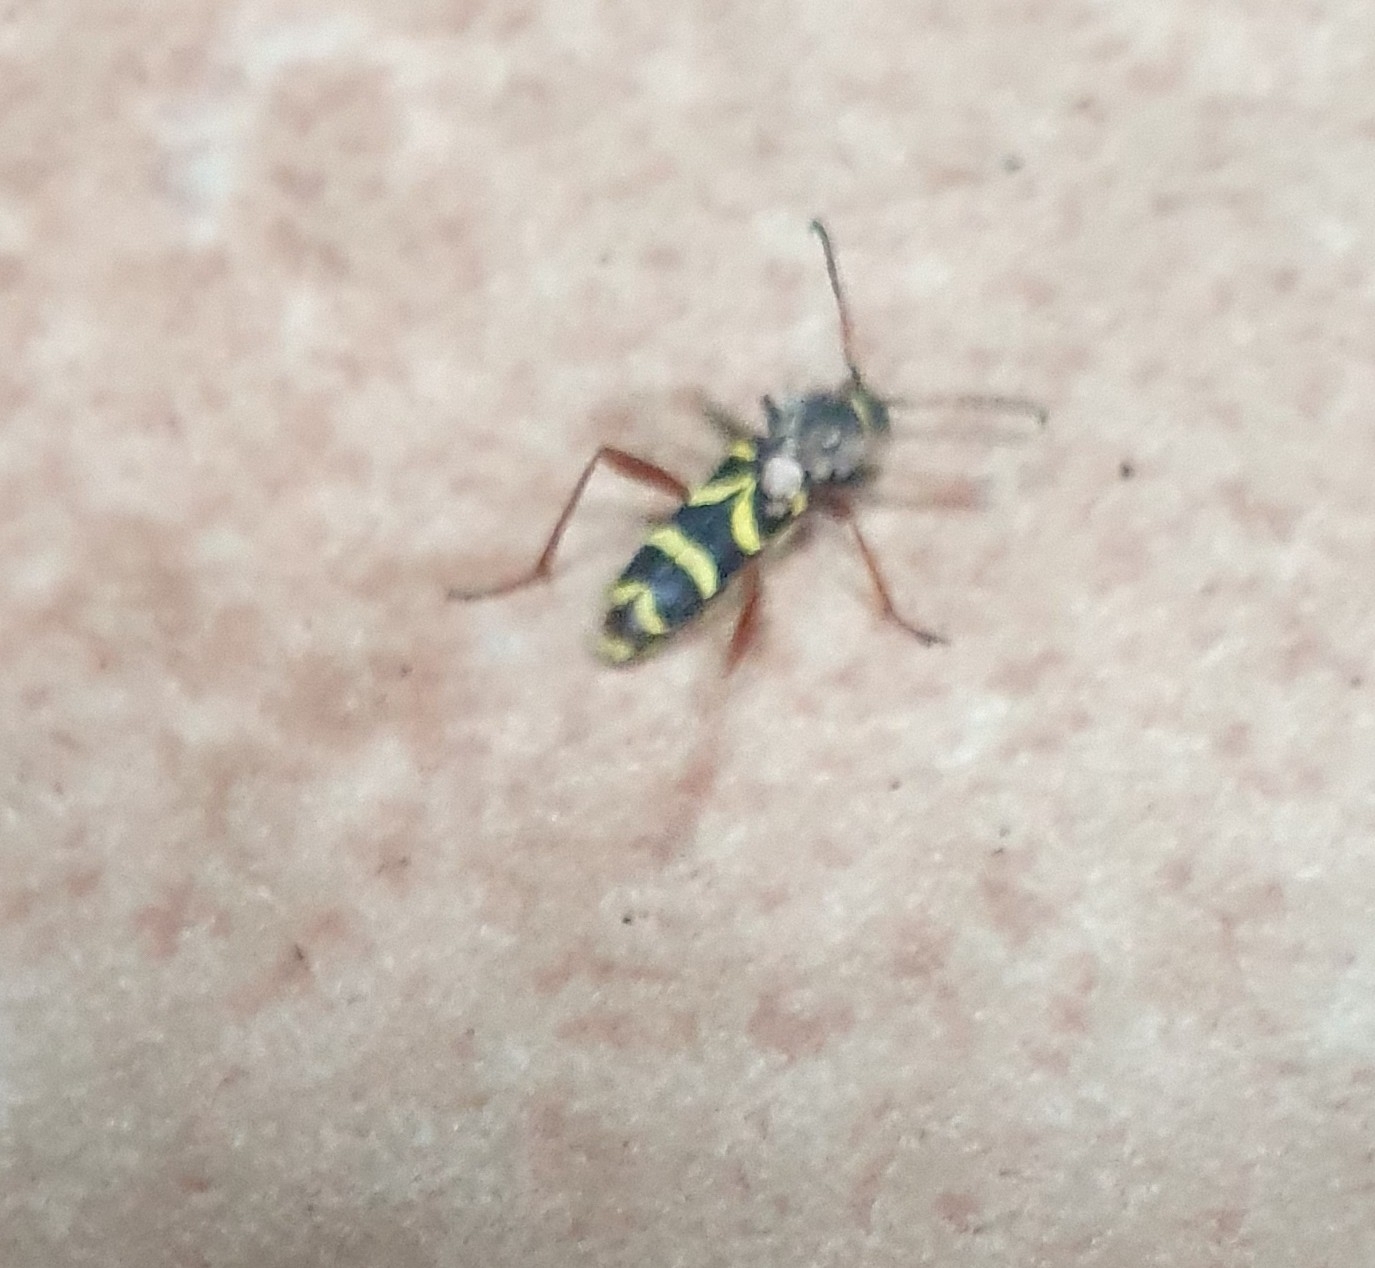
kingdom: Animalia
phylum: Arthropoda
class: Insecta
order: Coleoptera
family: Cerambycidae
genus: Clytus
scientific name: Clytus arietis
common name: Wasp beetle
